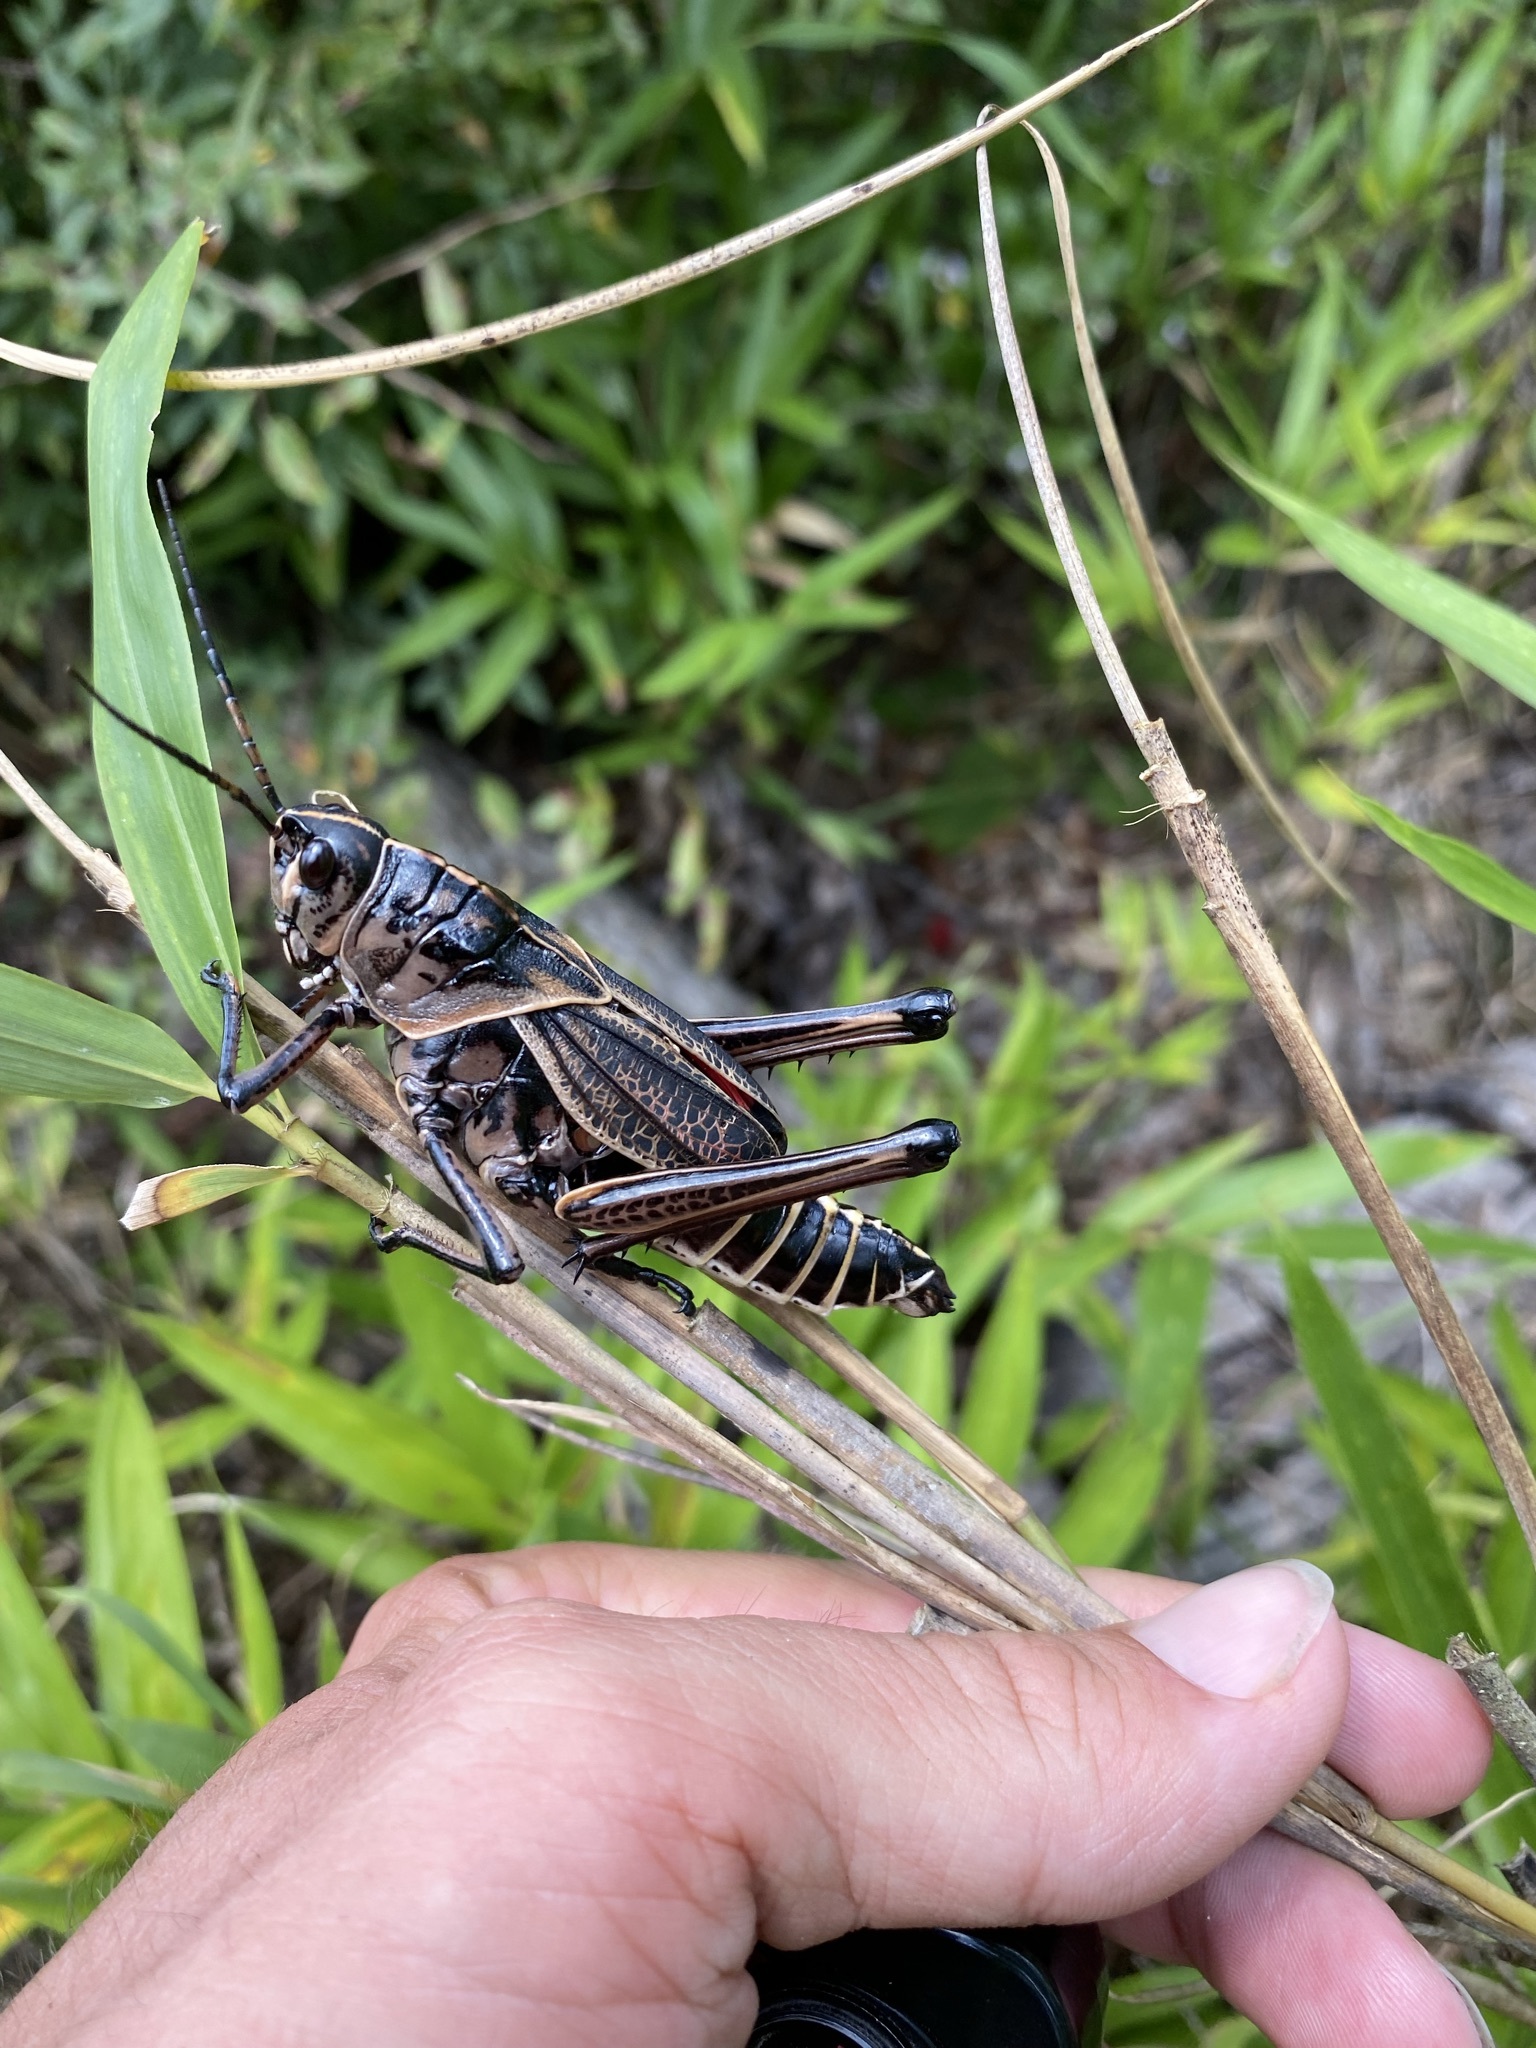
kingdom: Animalia
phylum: Arthropoda
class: Insecta
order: Orthoptera
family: Romaleidae
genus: Romalea
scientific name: Romalea microptera
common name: Eastern lubber grasshopper
